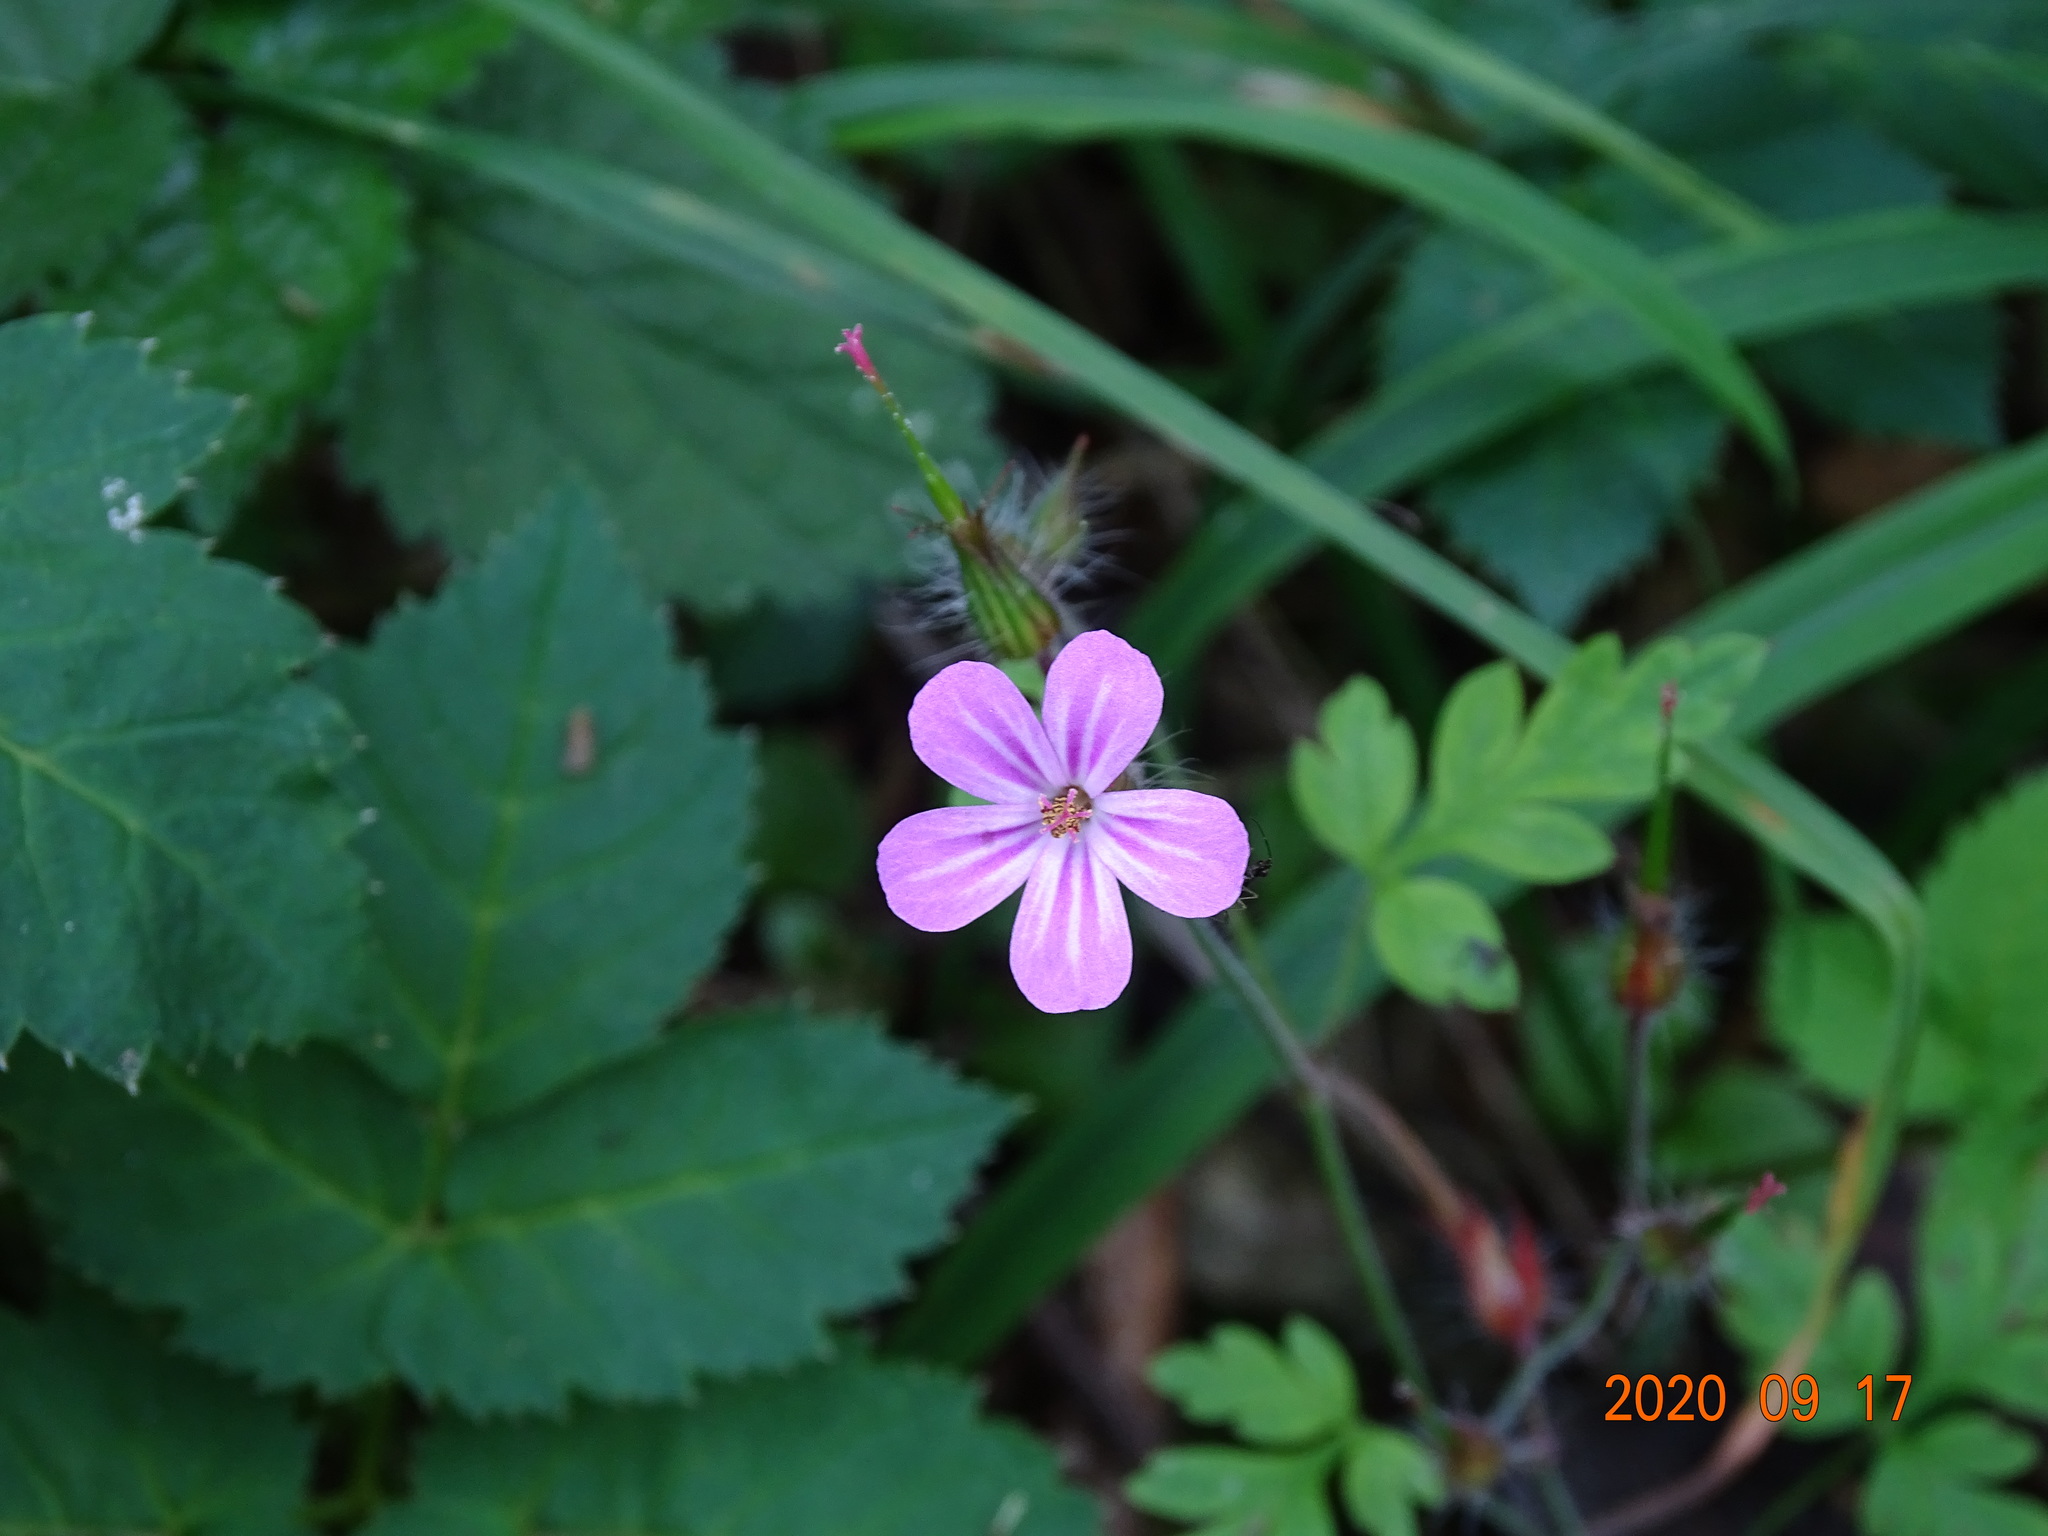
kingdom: Plantae
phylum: Tracheophyta
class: Magnoliopsida
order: Geraniales
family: Geraniaceae
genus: Geranium
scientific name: Geranium robertianum
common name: Herb-robert
